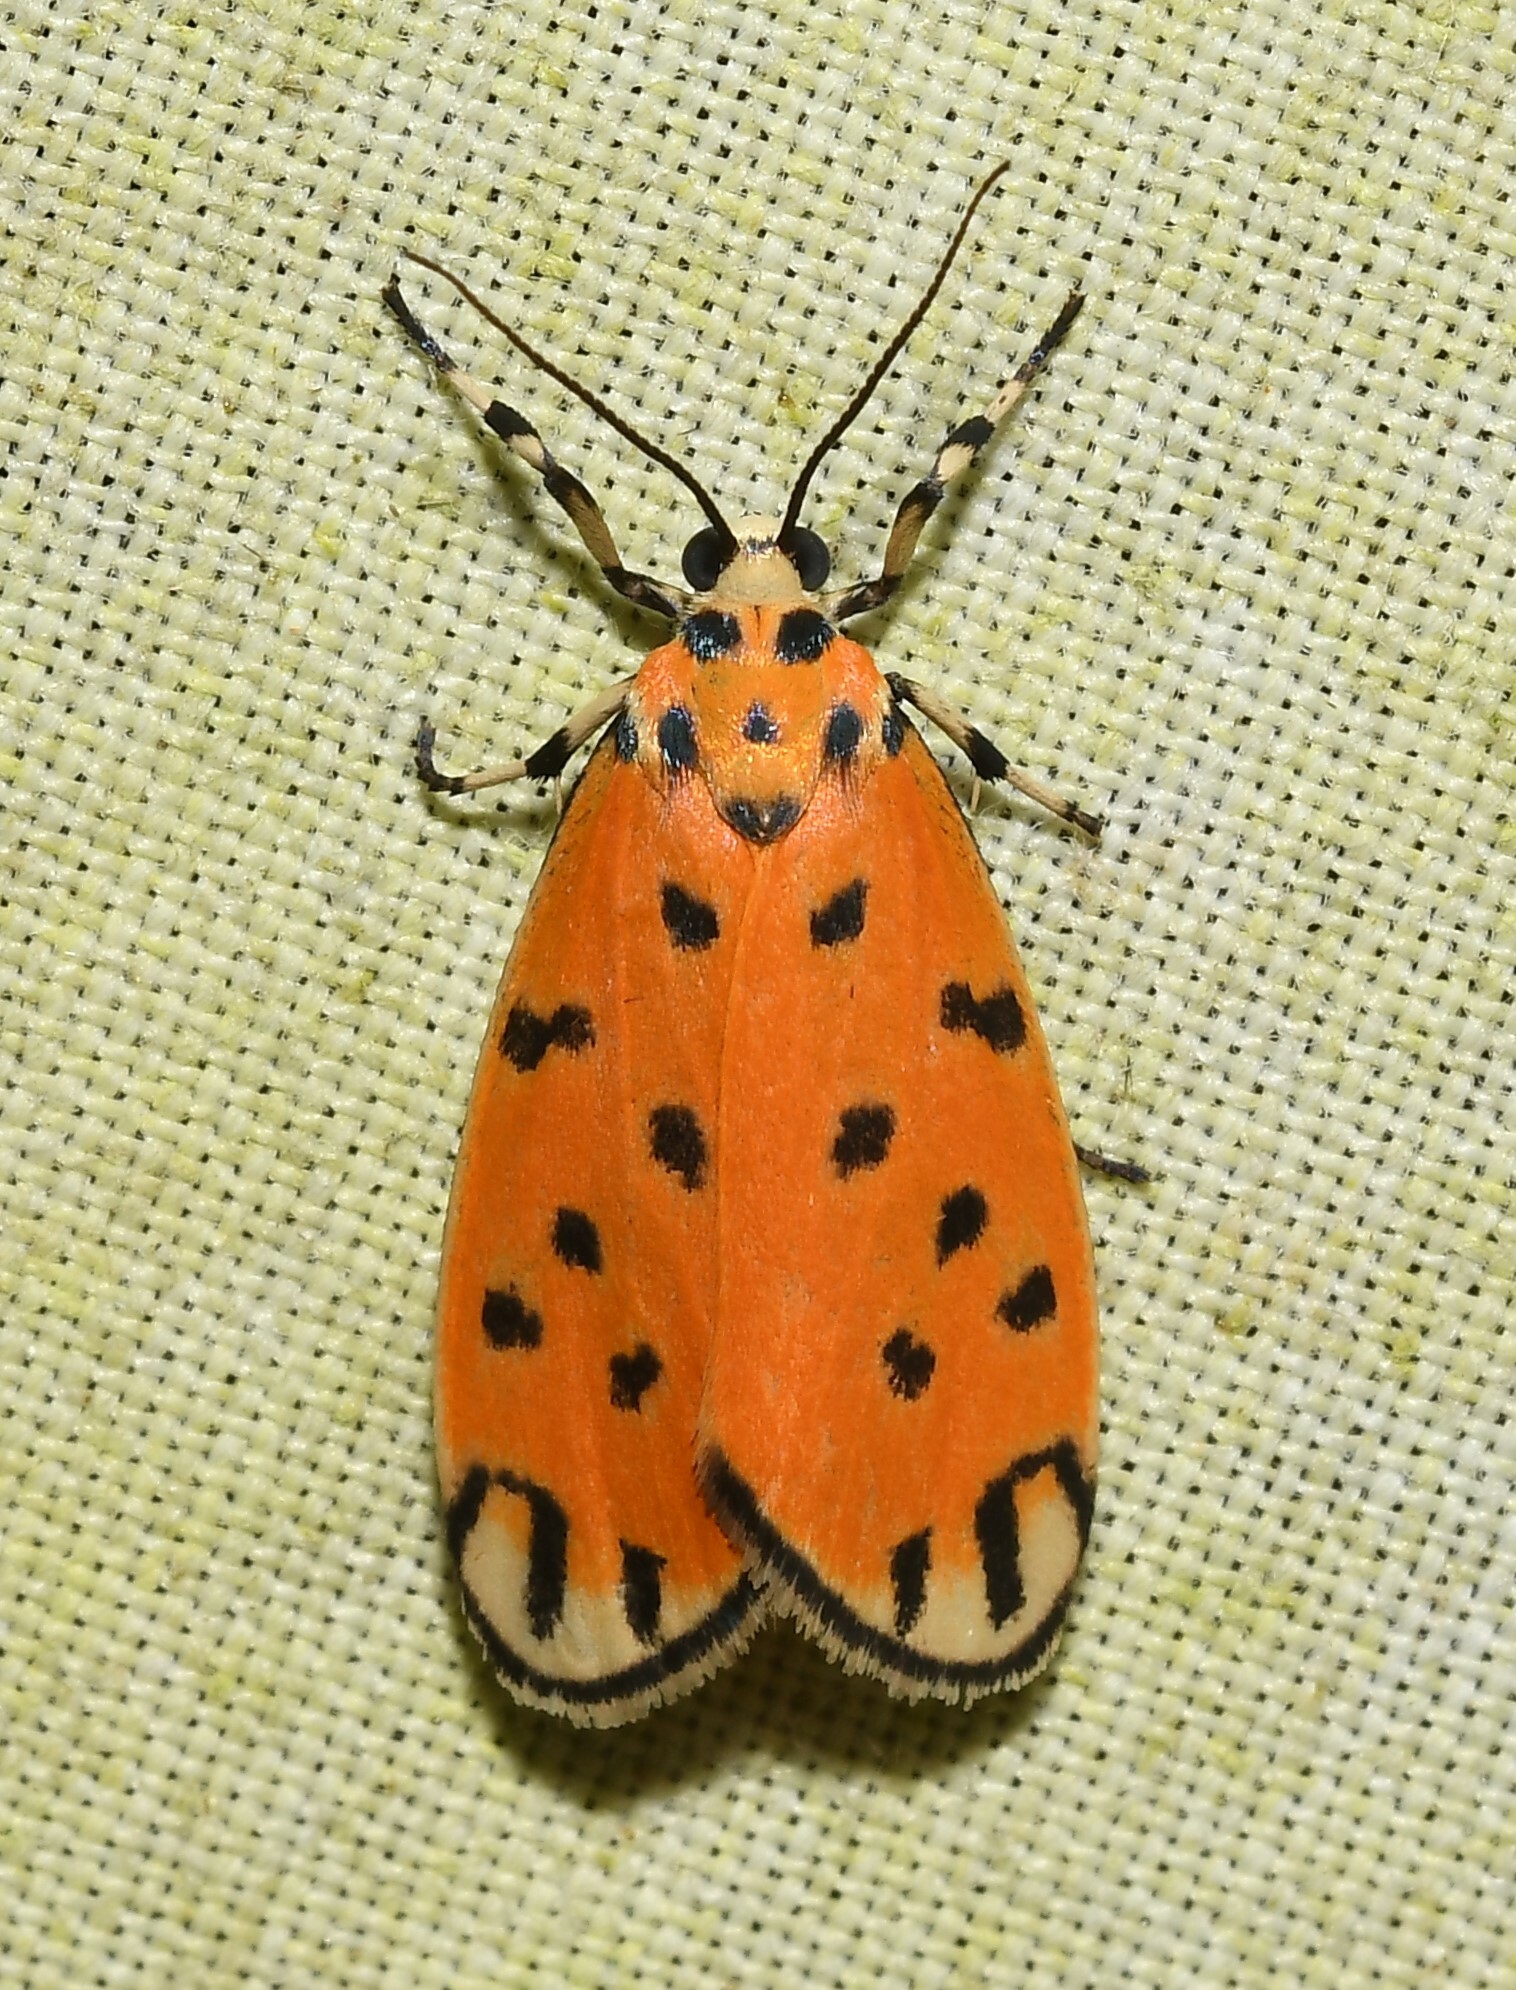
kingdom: Animalia
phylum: Arthropoda
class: Insecta
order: Lepidoptera
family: Erebidae
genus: Clemensia
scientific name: Clemensia donuca
